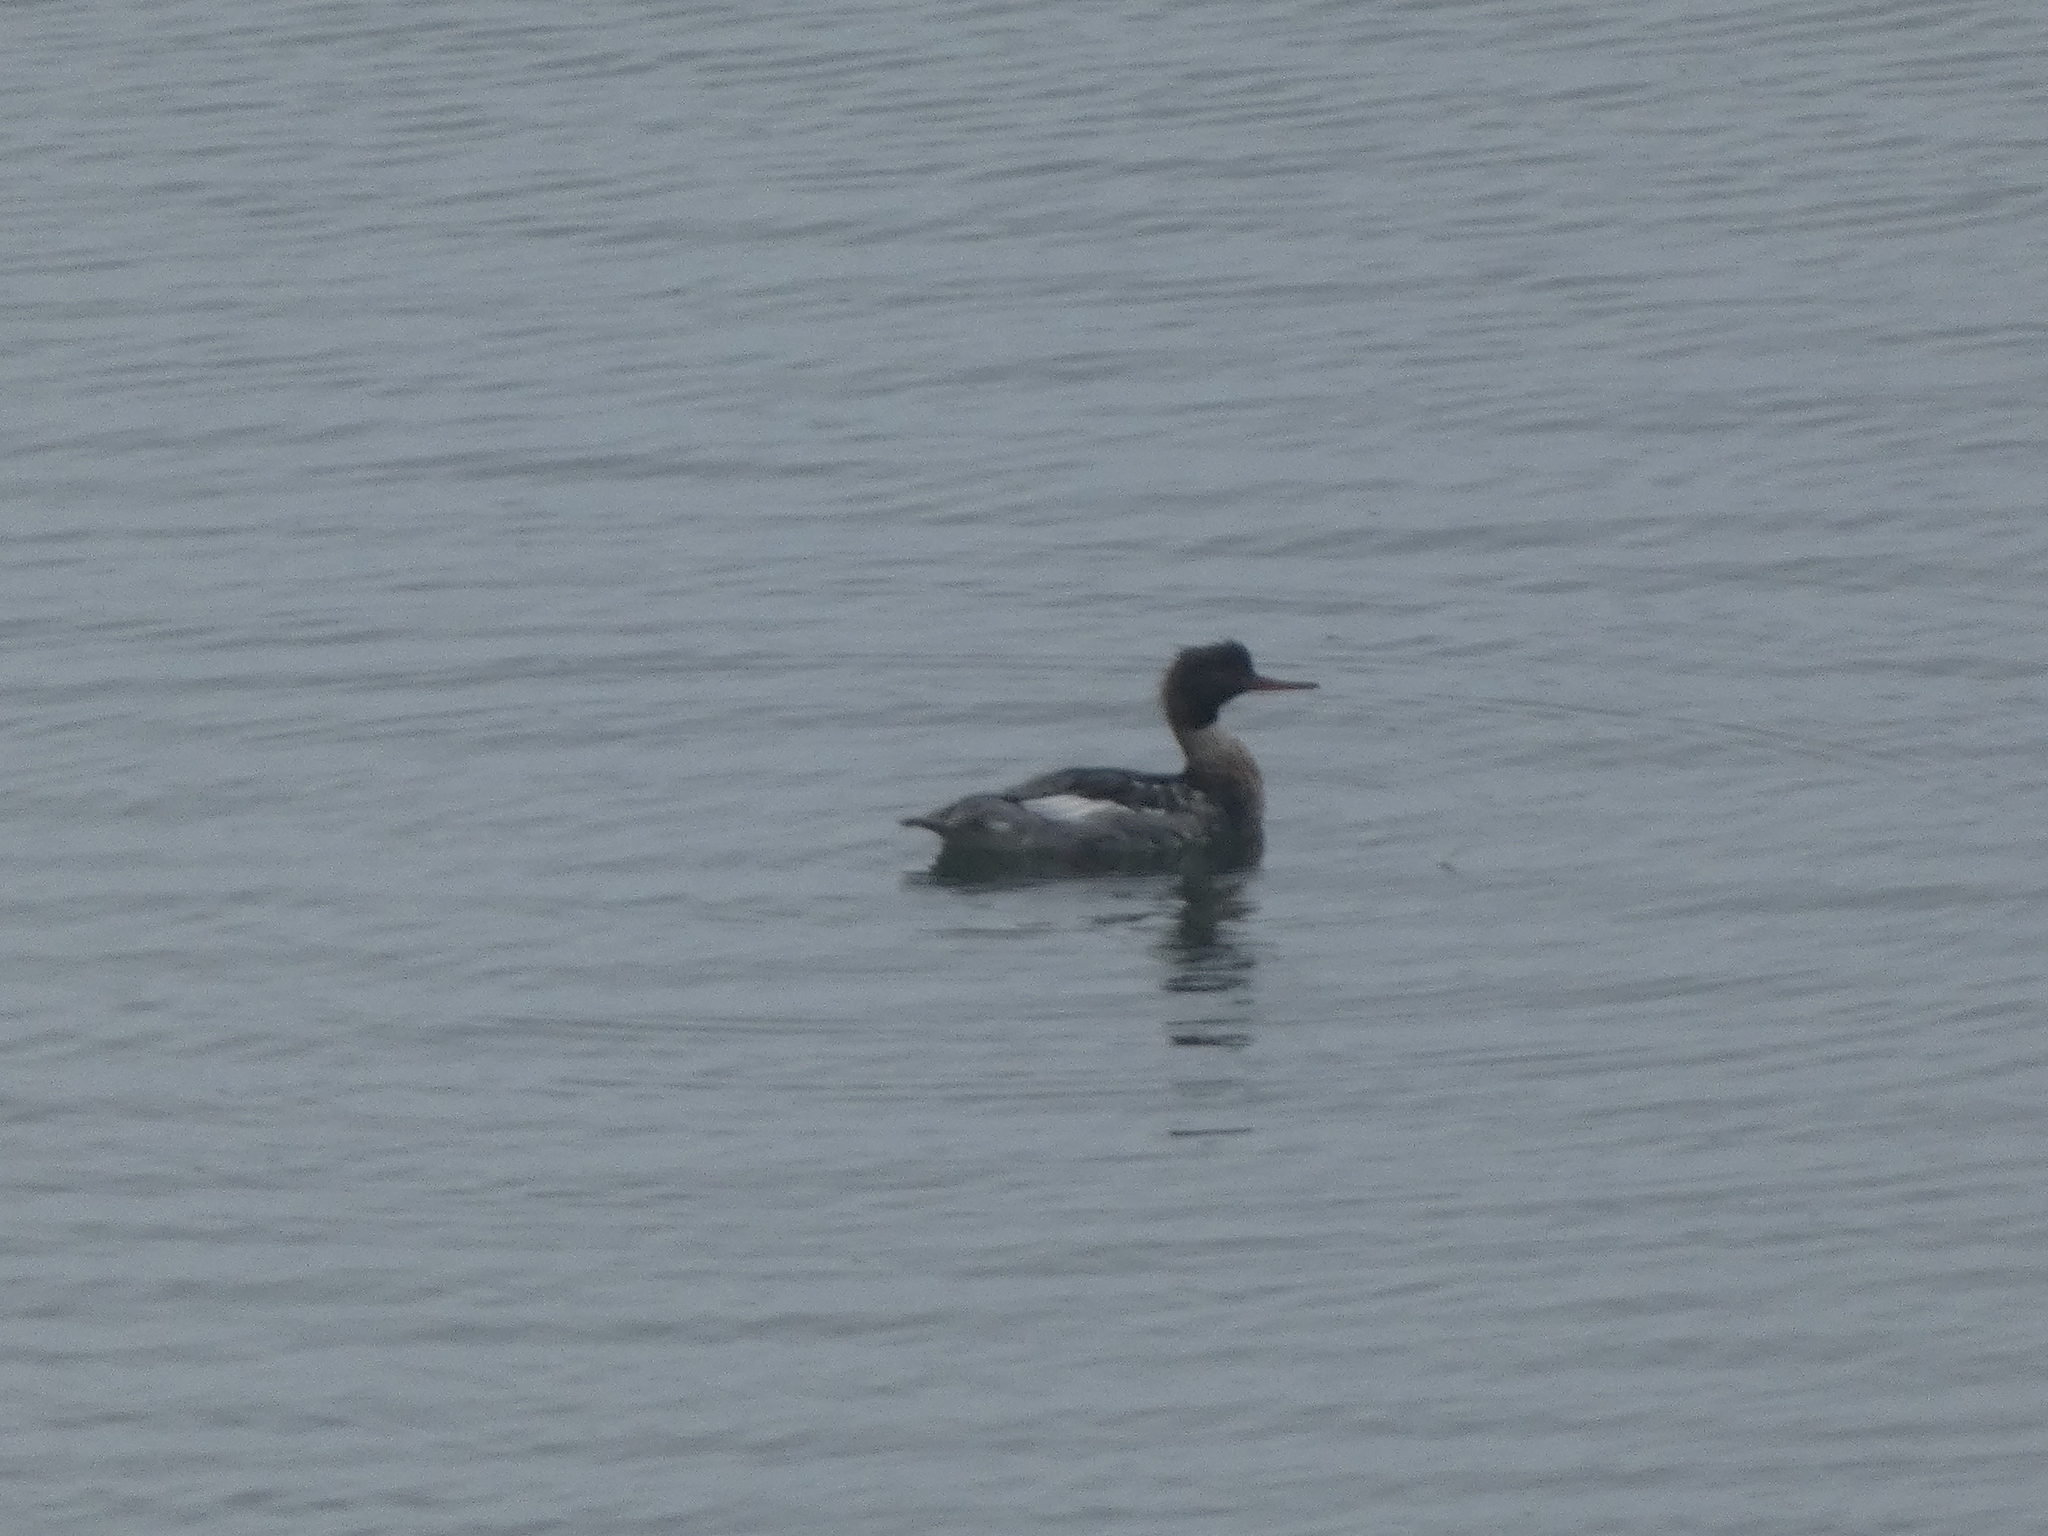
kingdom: Animalia
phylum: Chordata
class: Aves
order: Anseriformes
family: Anatidae
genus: Mergus
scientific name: Mergus serrator
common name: Red-breasted merganser
